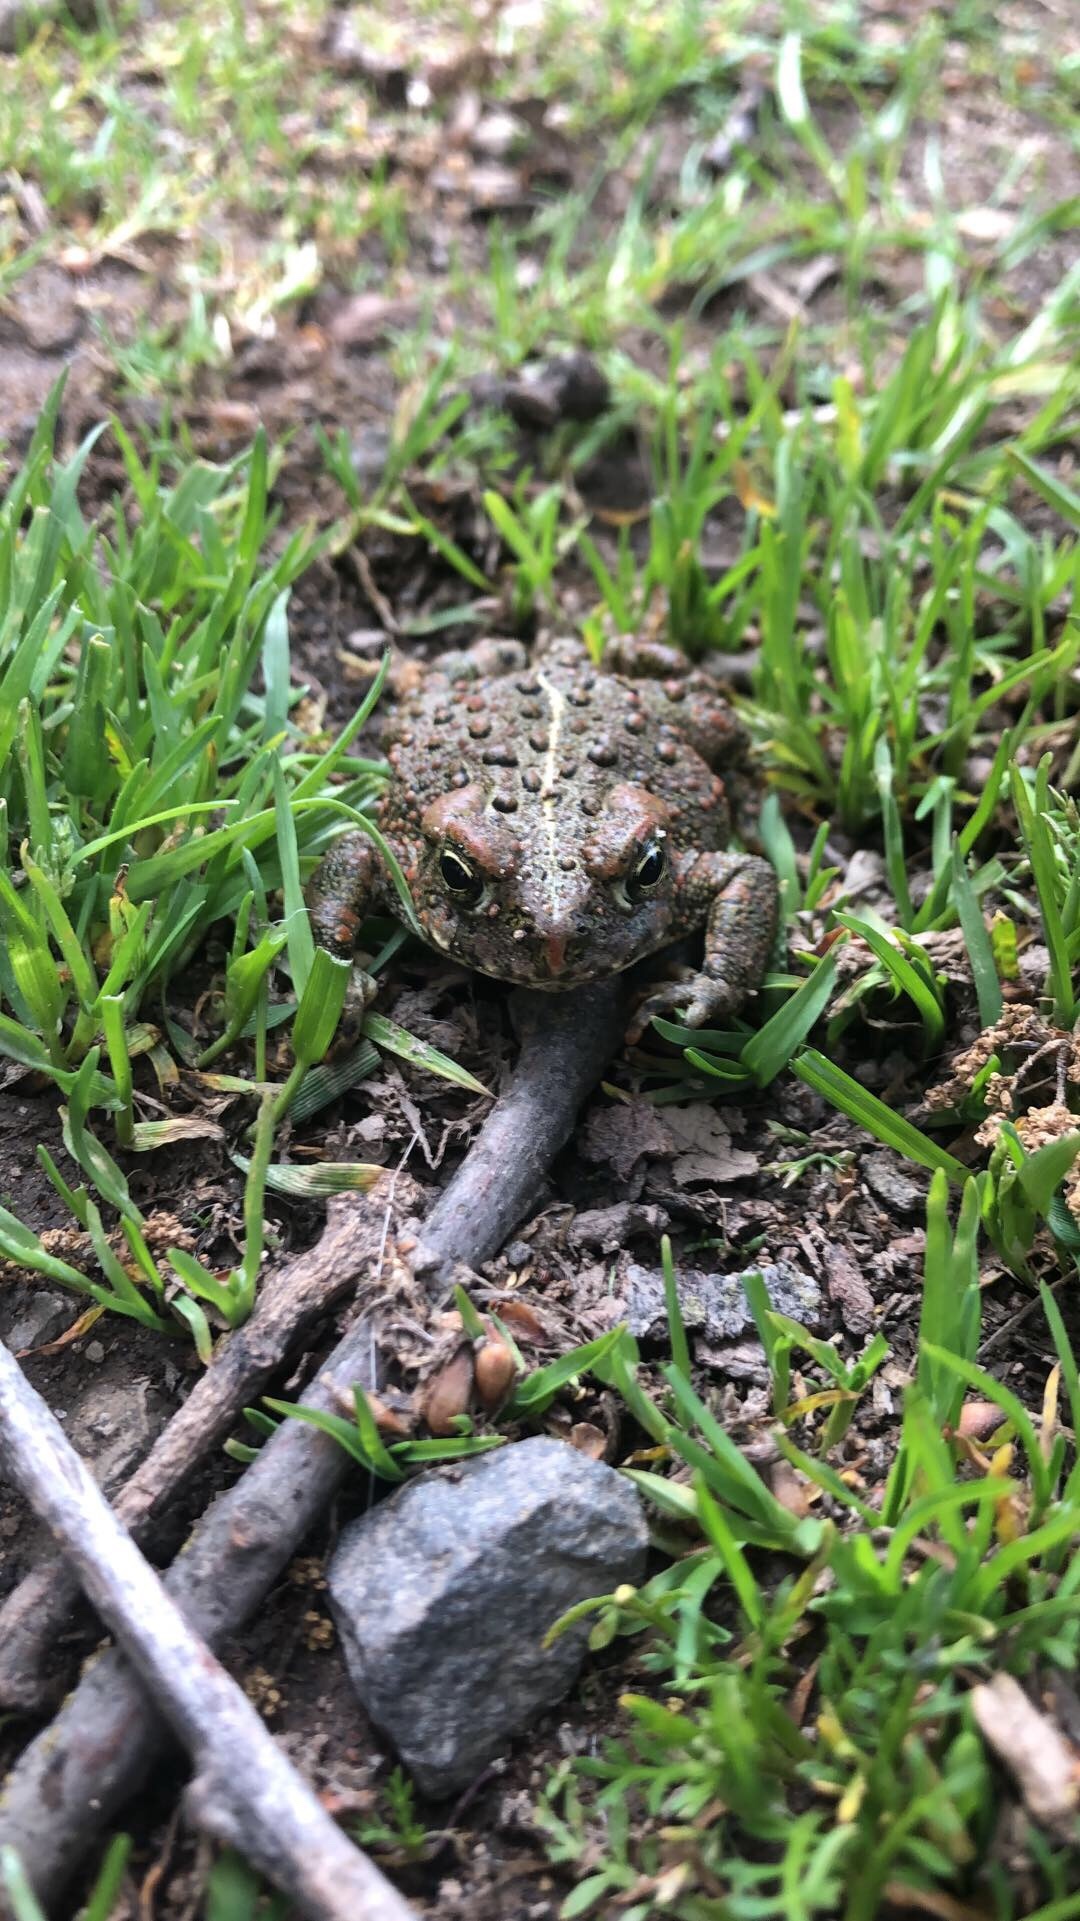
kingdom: Animalia
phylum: Chordata
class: Amphibia
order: Anura
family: Bufonidae
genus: Anaxyrus
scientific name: Anaxyrus boreas
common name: Western toad
